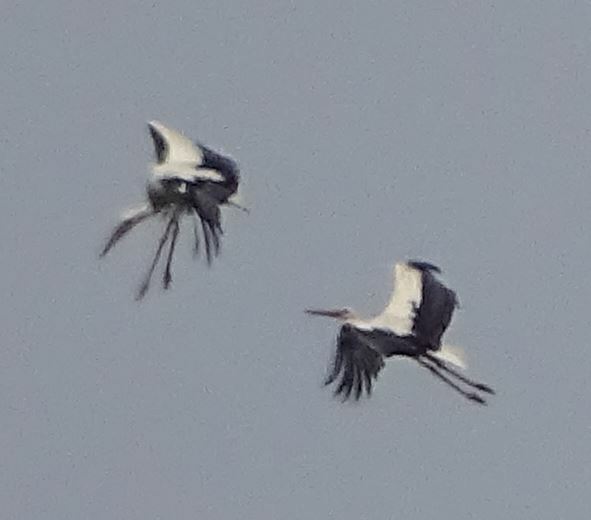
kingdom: Animalia
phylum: Chordata
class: Aves
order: Ciconiiformes
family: Ciconiidae
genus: Ciconia
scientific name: Ciconia ciconia
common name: White stork
